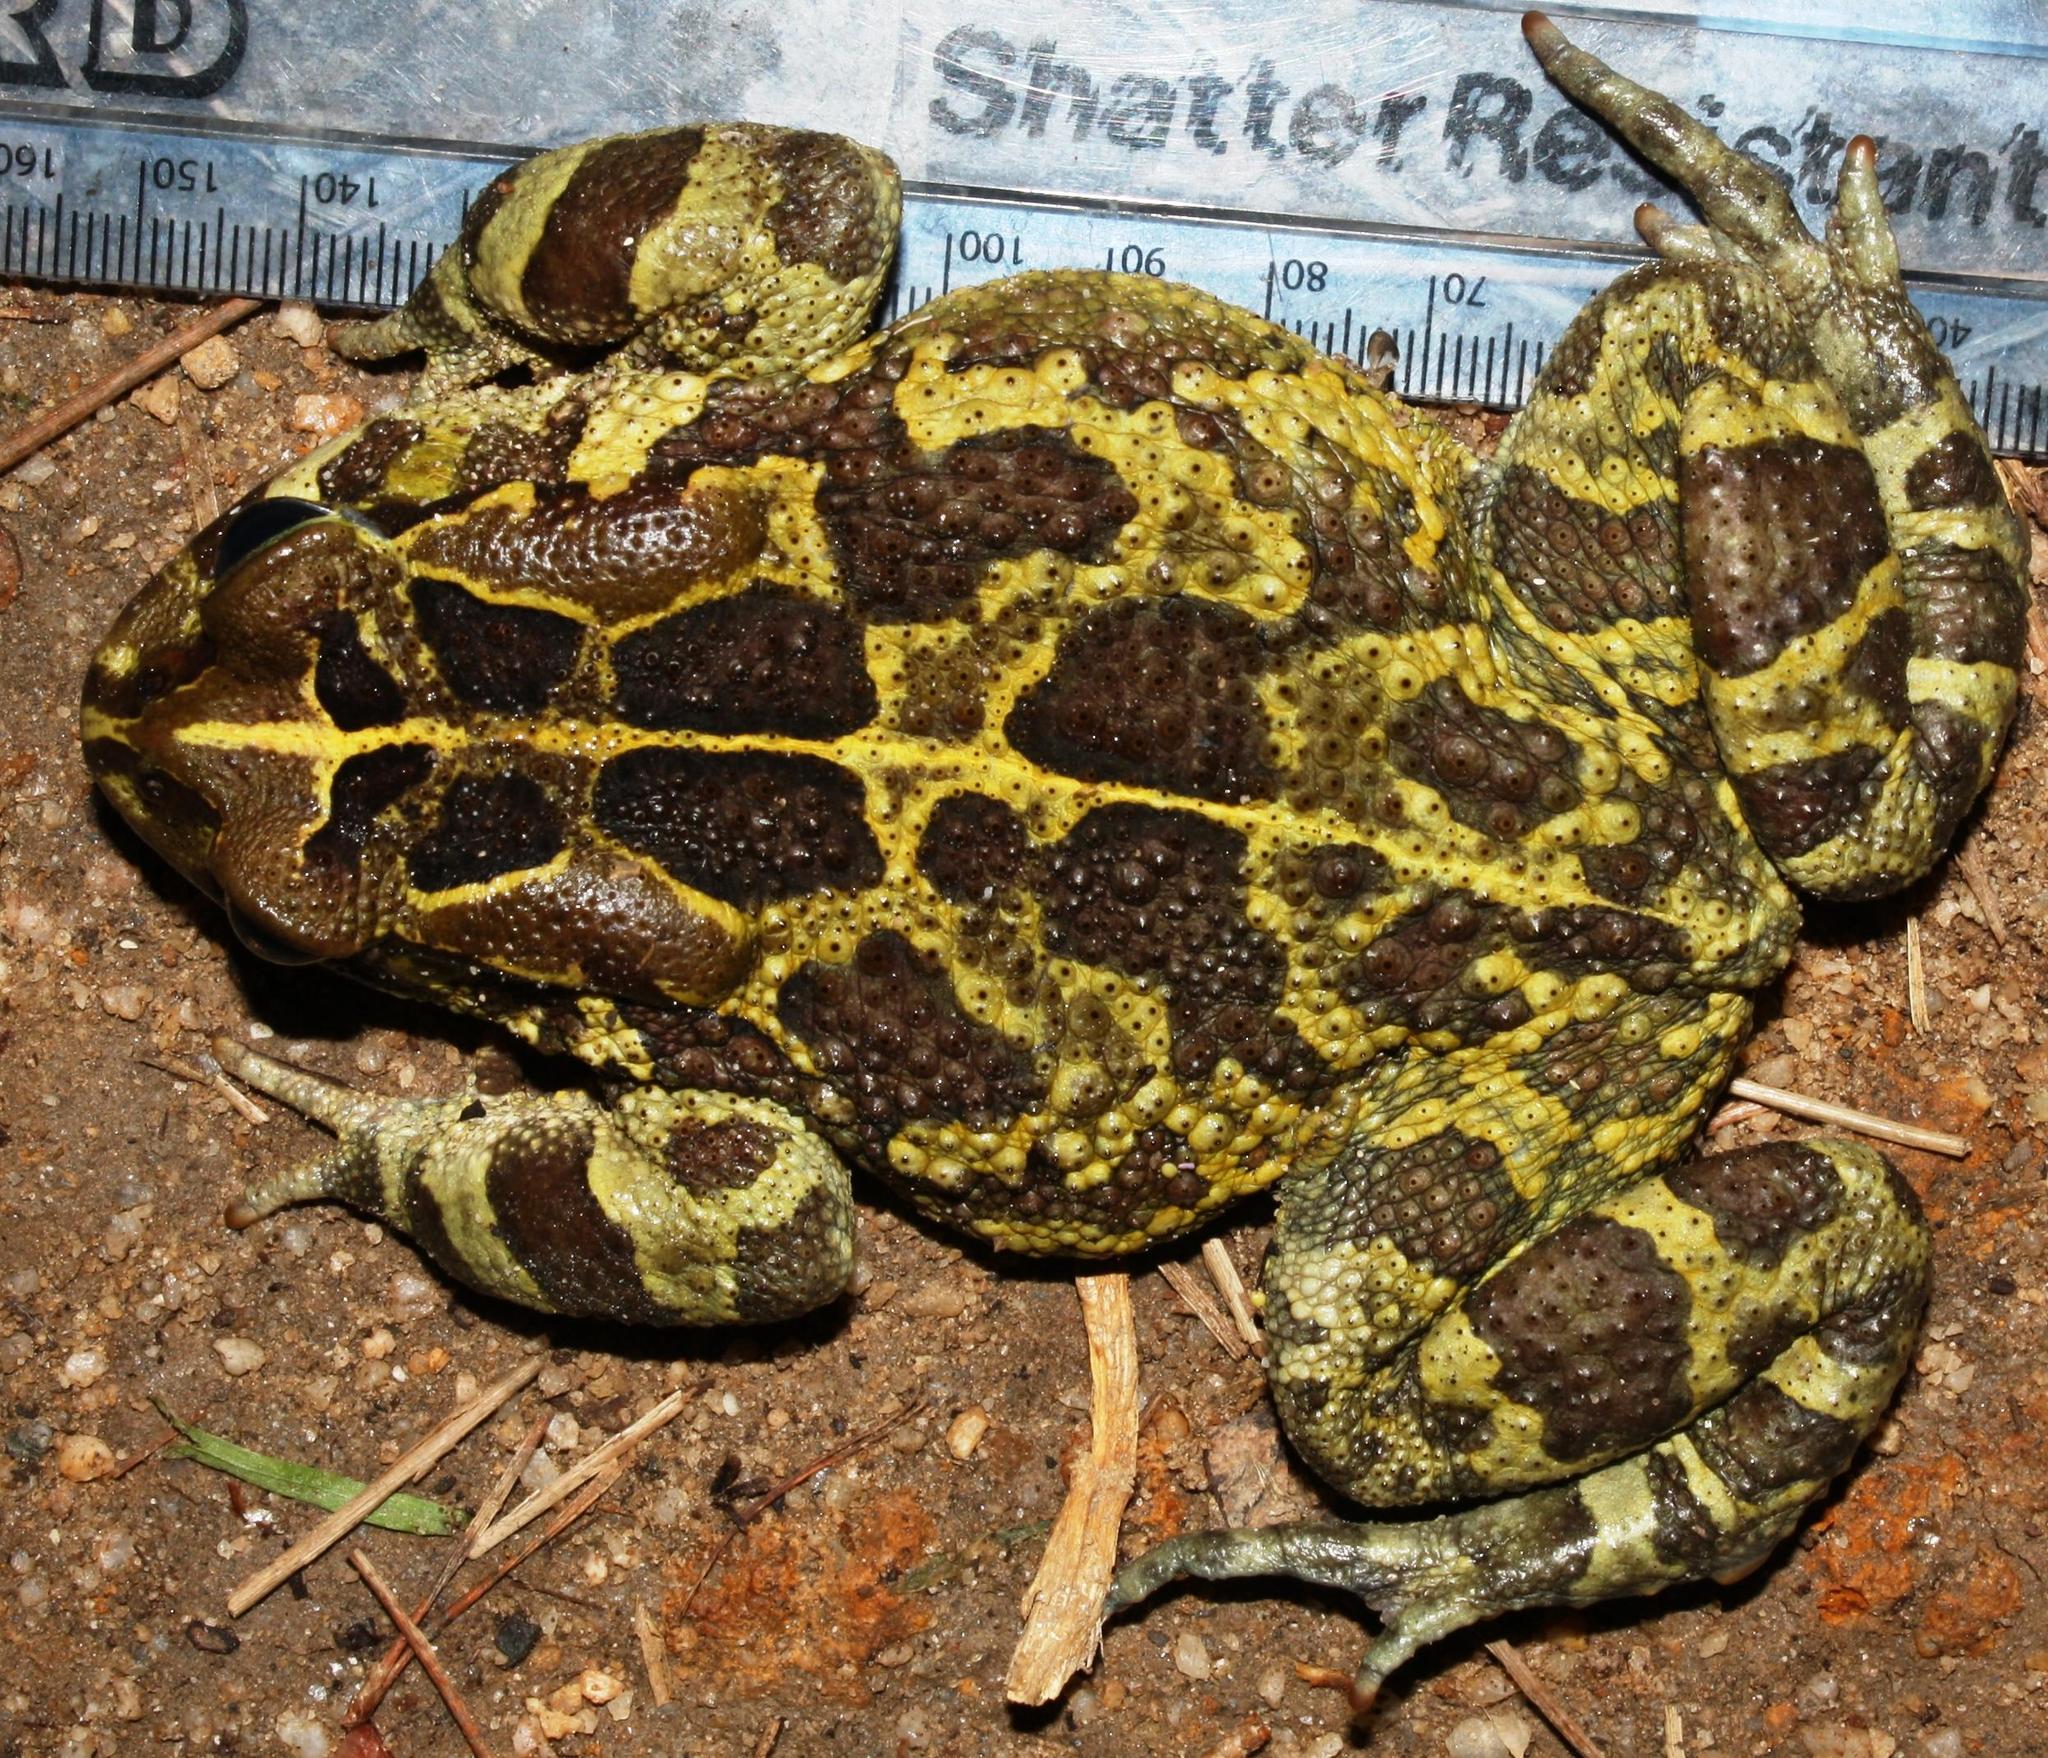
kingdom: Animalia
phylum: Chordata
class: Amphibia
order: Anura
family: Bufonidae
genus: Sclerophrys
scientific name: Sclerophrys pantherina
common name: Panther toad
